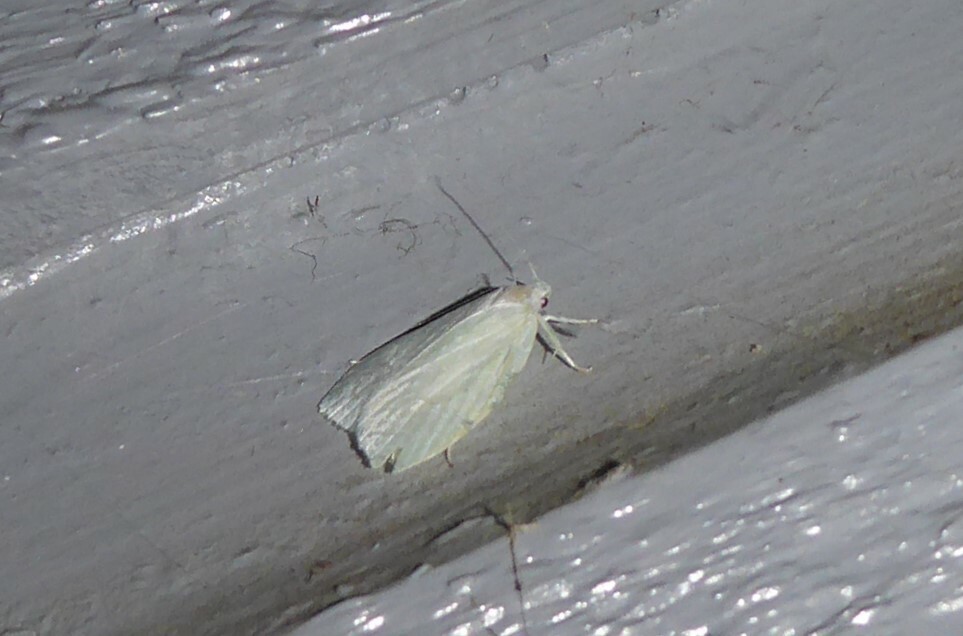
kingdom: Animalia
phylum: Arthropoda
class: Insecta
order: Lepidoptera
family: Oecophoridae
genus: Nymphostola
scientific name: Nymphostola galactina
